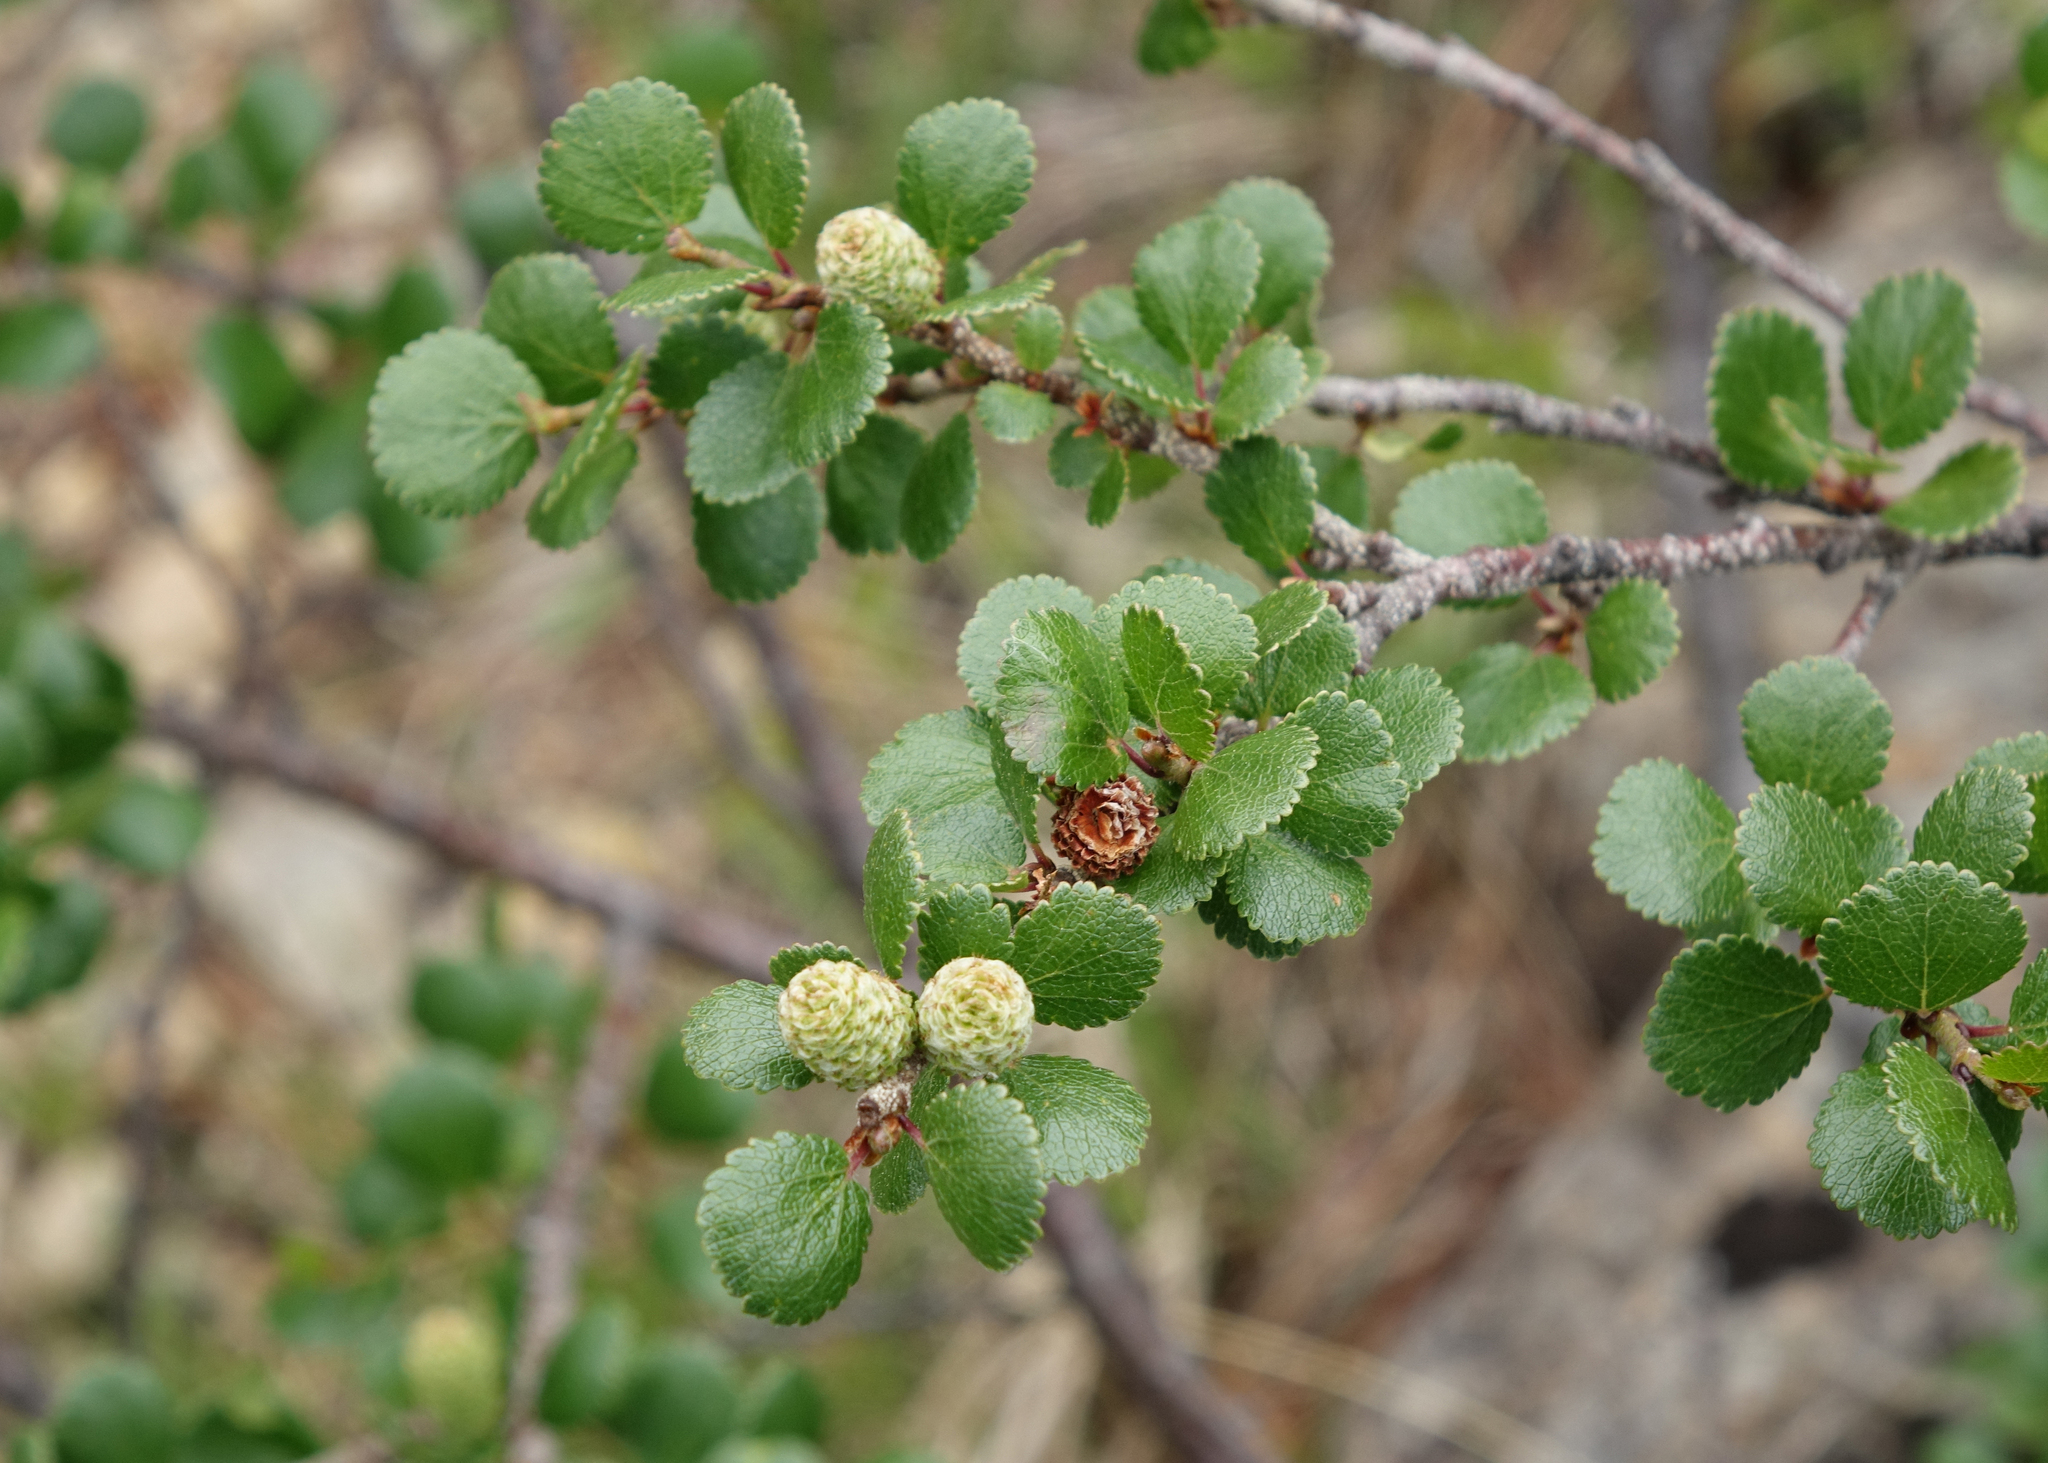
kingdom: Plantae
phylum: Tracheophyta
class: Magnoliopsida
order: Fagales
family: Betulaceae
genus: Betula
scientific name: Betula glandulosa
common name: Dwarf birch
